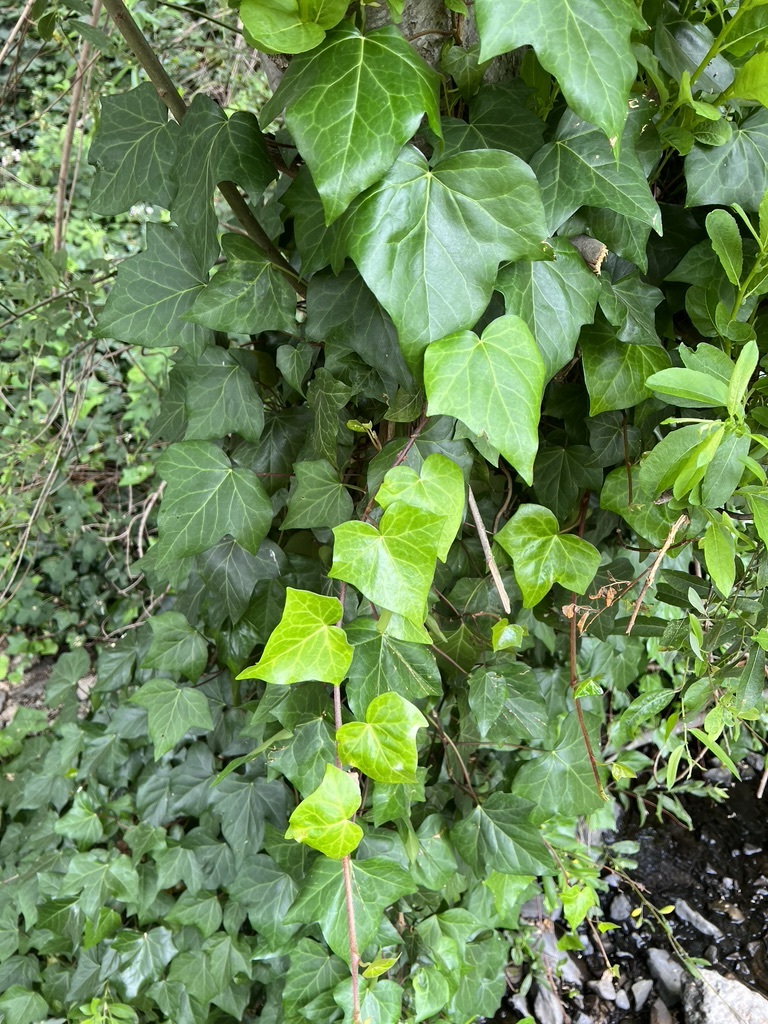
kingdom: Plantae
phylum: Tracheophyta
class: Magnoliopsida
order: Apiales
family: Araliaceae
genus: Hedera
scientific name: Hedera canariensis
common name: Madeira ivy
